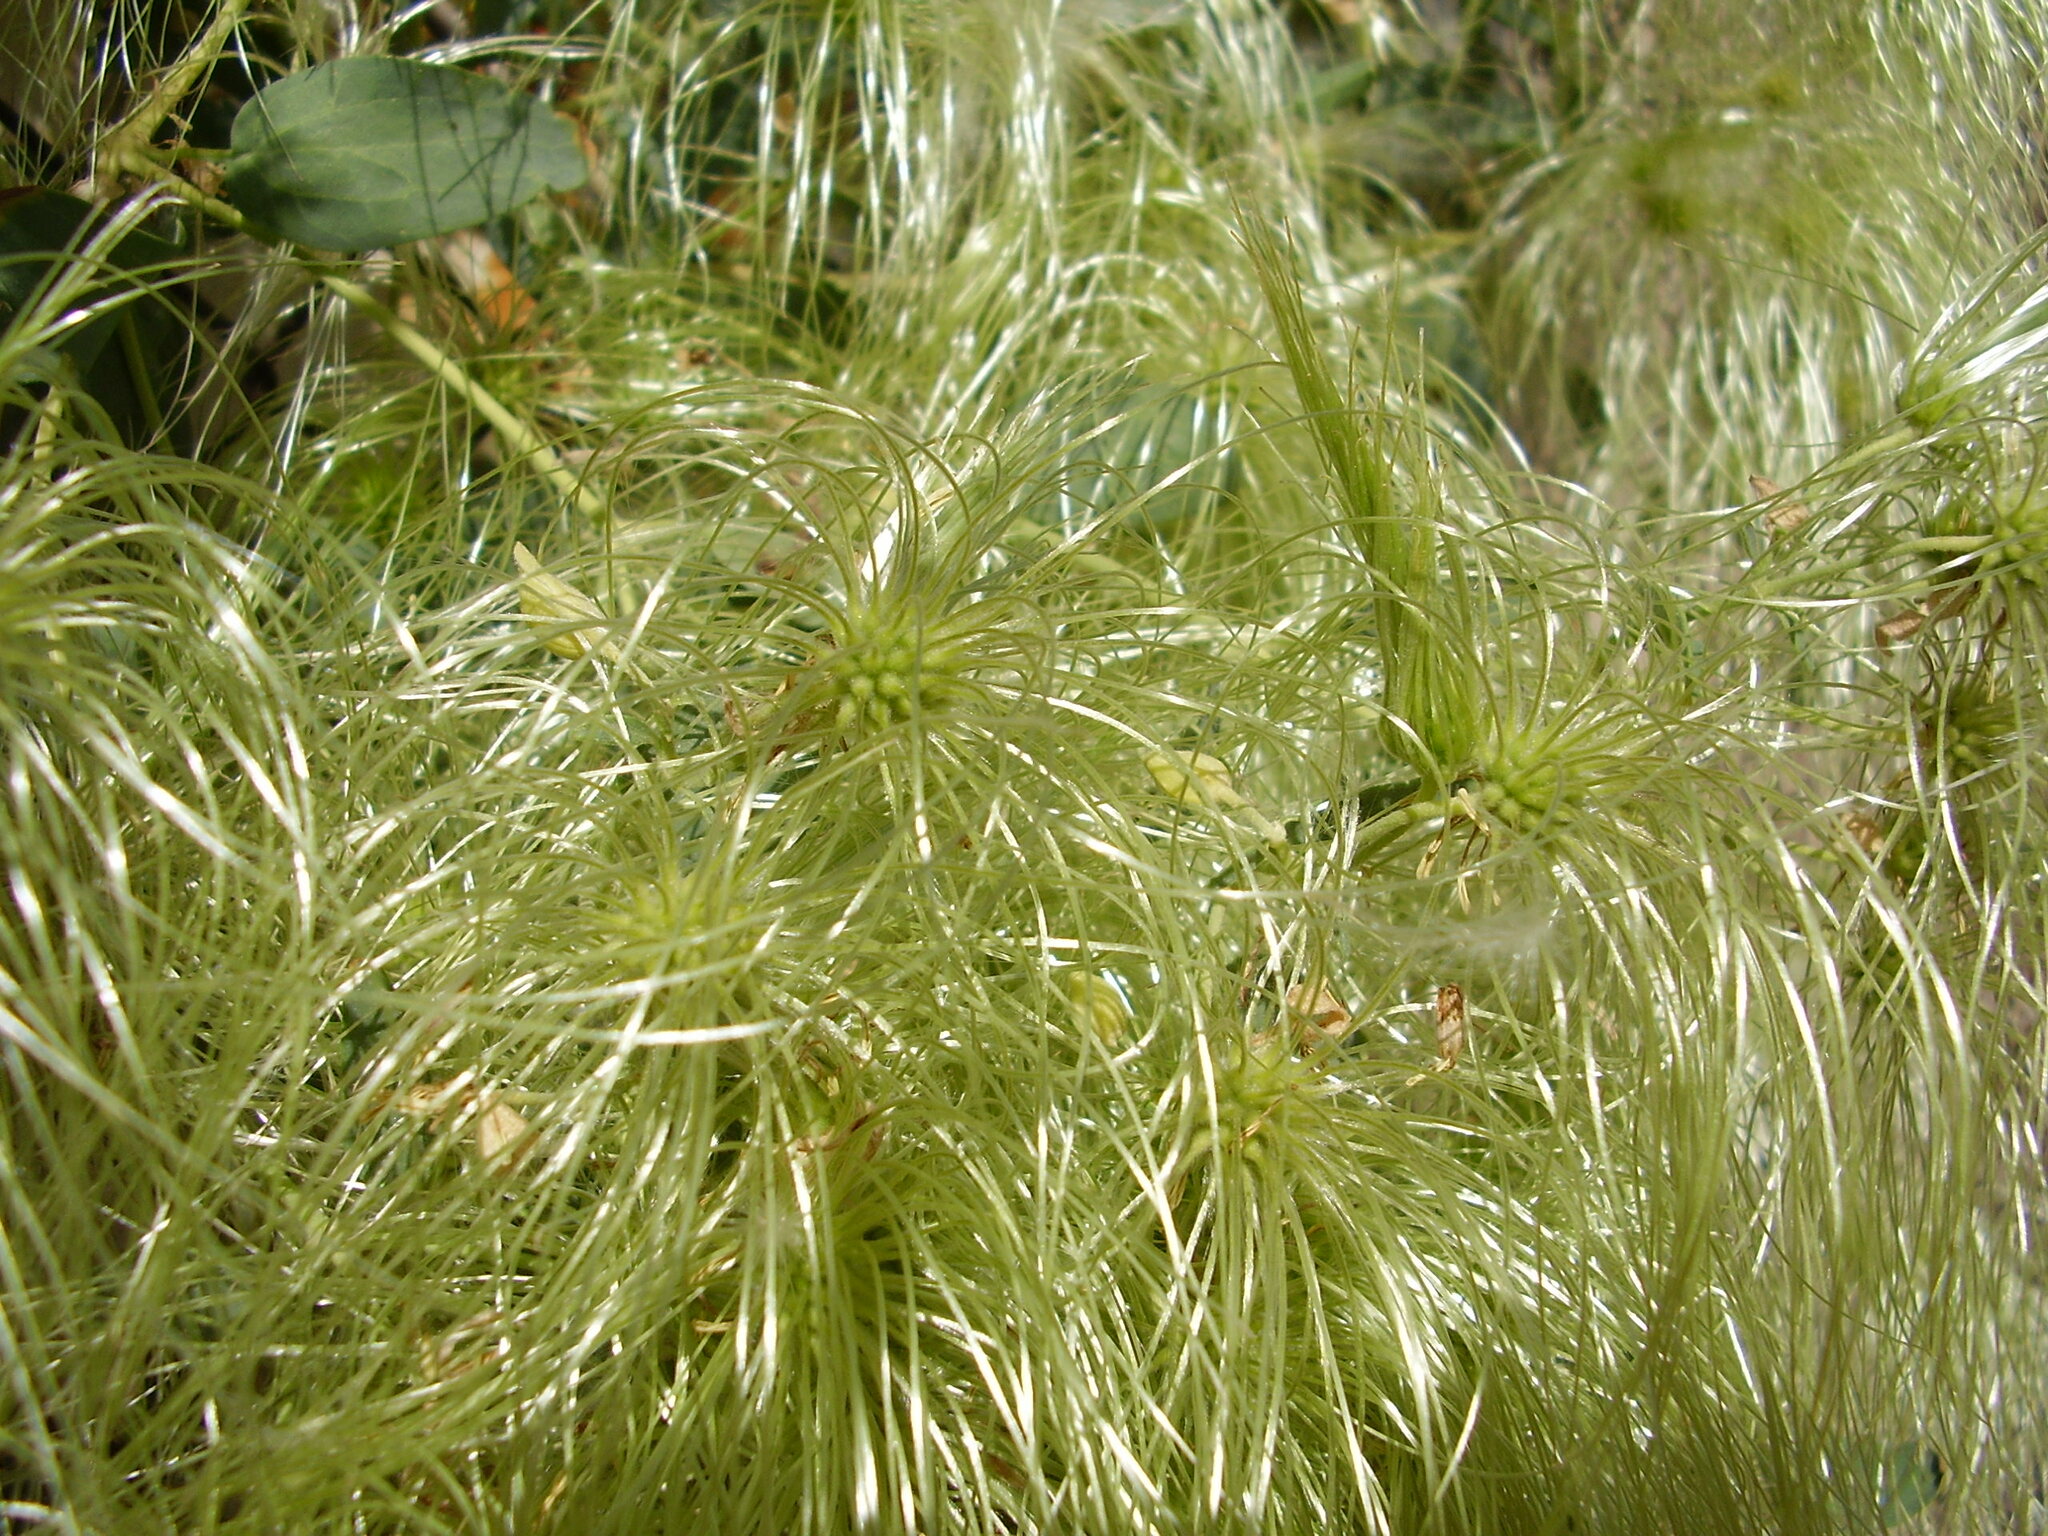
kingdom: Plantae
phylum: Tracheophyta
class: Magnoliopsida
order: Ranunculales
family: Ranunculaceae
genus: Clematis
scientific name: Clematis orientalis
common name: Oriental virgin's-bower
